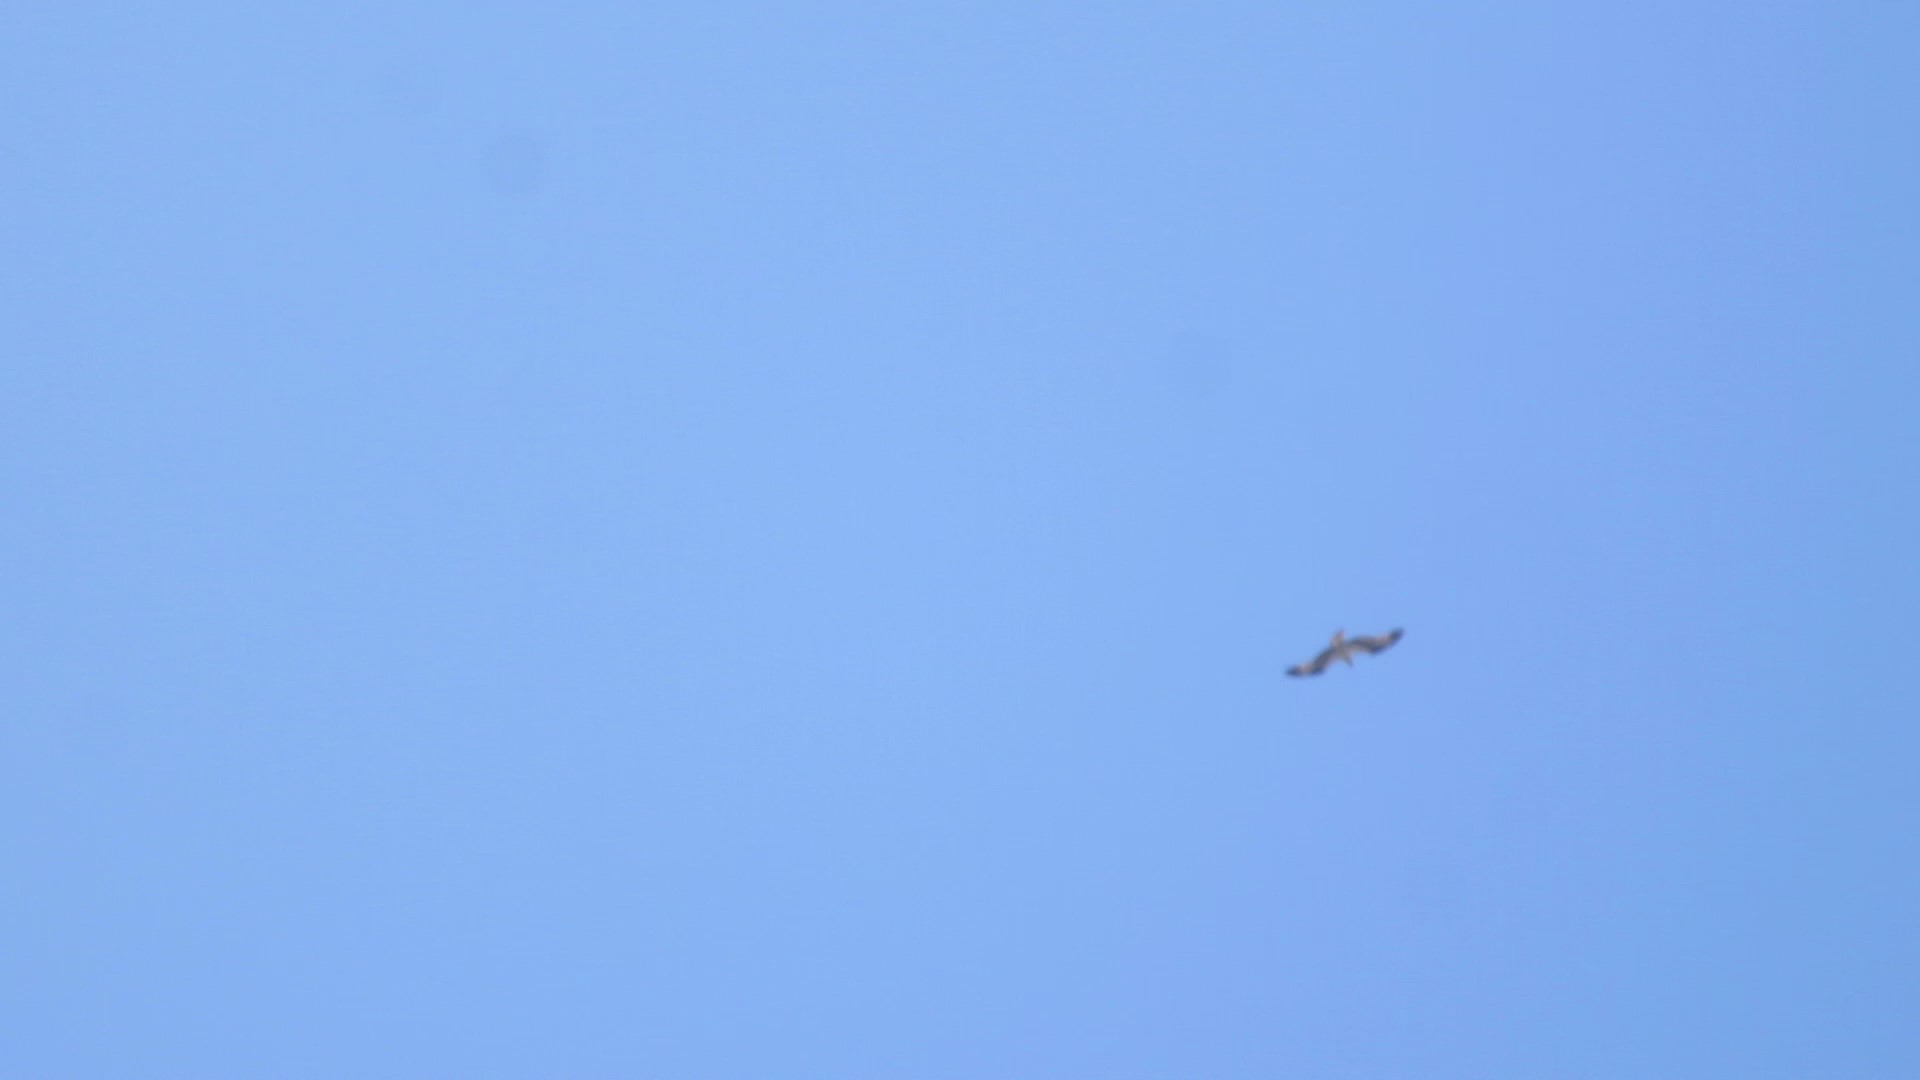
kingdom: Animalia
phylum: Chordata
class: Aves
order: Accipitriformes
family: Pandionidae
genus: Pandion
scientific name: Pandion haliaetus
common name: Osprey
